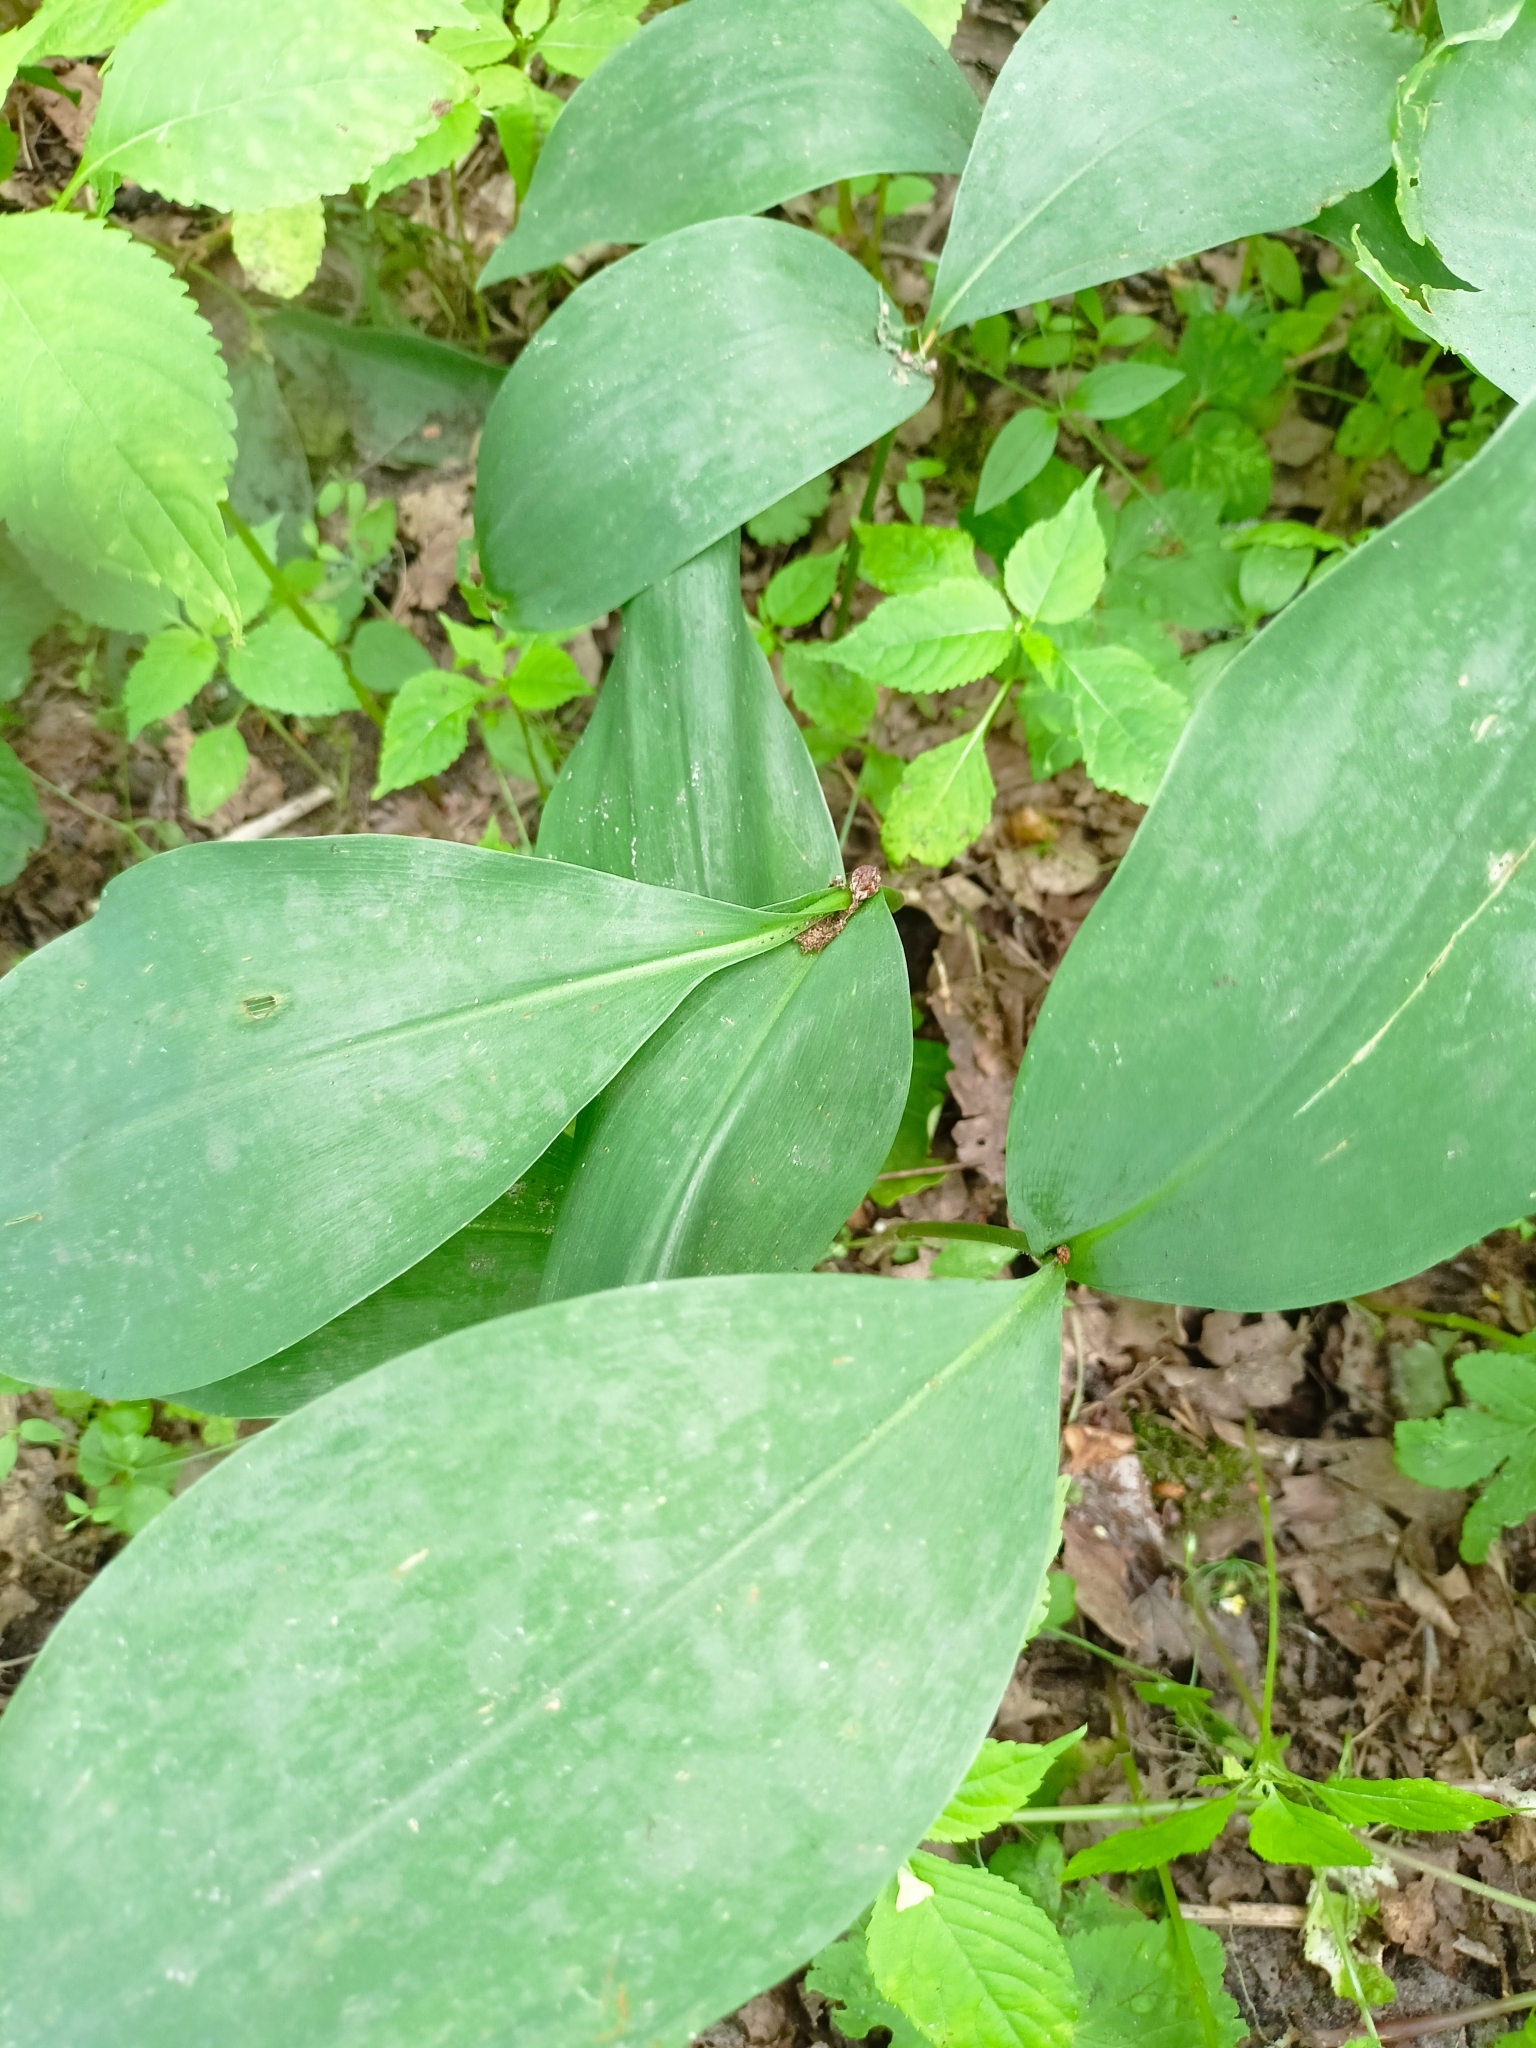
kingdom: Plantae
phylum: Tracheophyta
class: Liliopsida
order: Asparagales
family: Asparagaceae
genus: Convallaria
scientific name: Convallaria majalis
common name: Lily-of-the-valley
